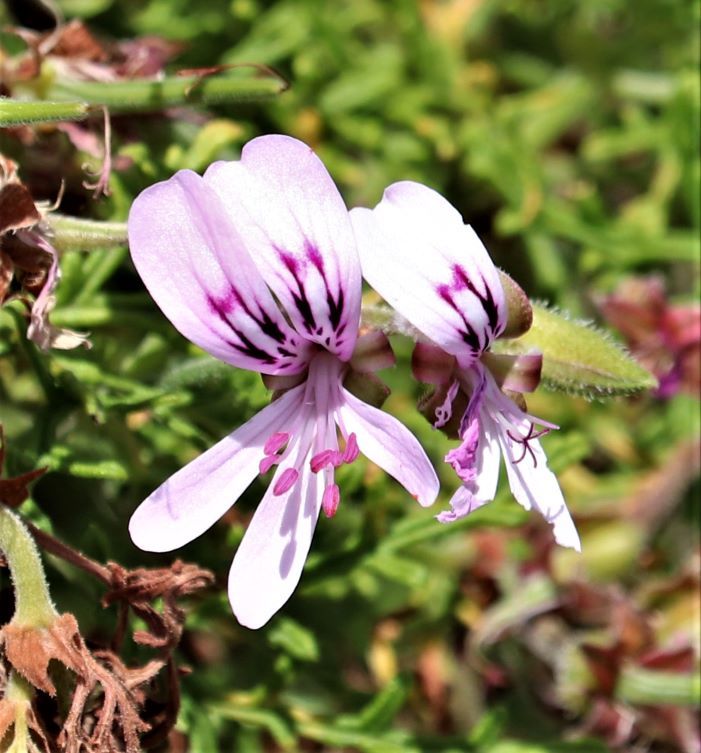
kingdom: Plantae
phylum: Tracheophyta
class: Magnoliopsida
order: Geraniales
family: Geraniaceae
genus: Pelargonium
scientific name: Pelargonium radens
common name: Rasp-leaf pelargonium
